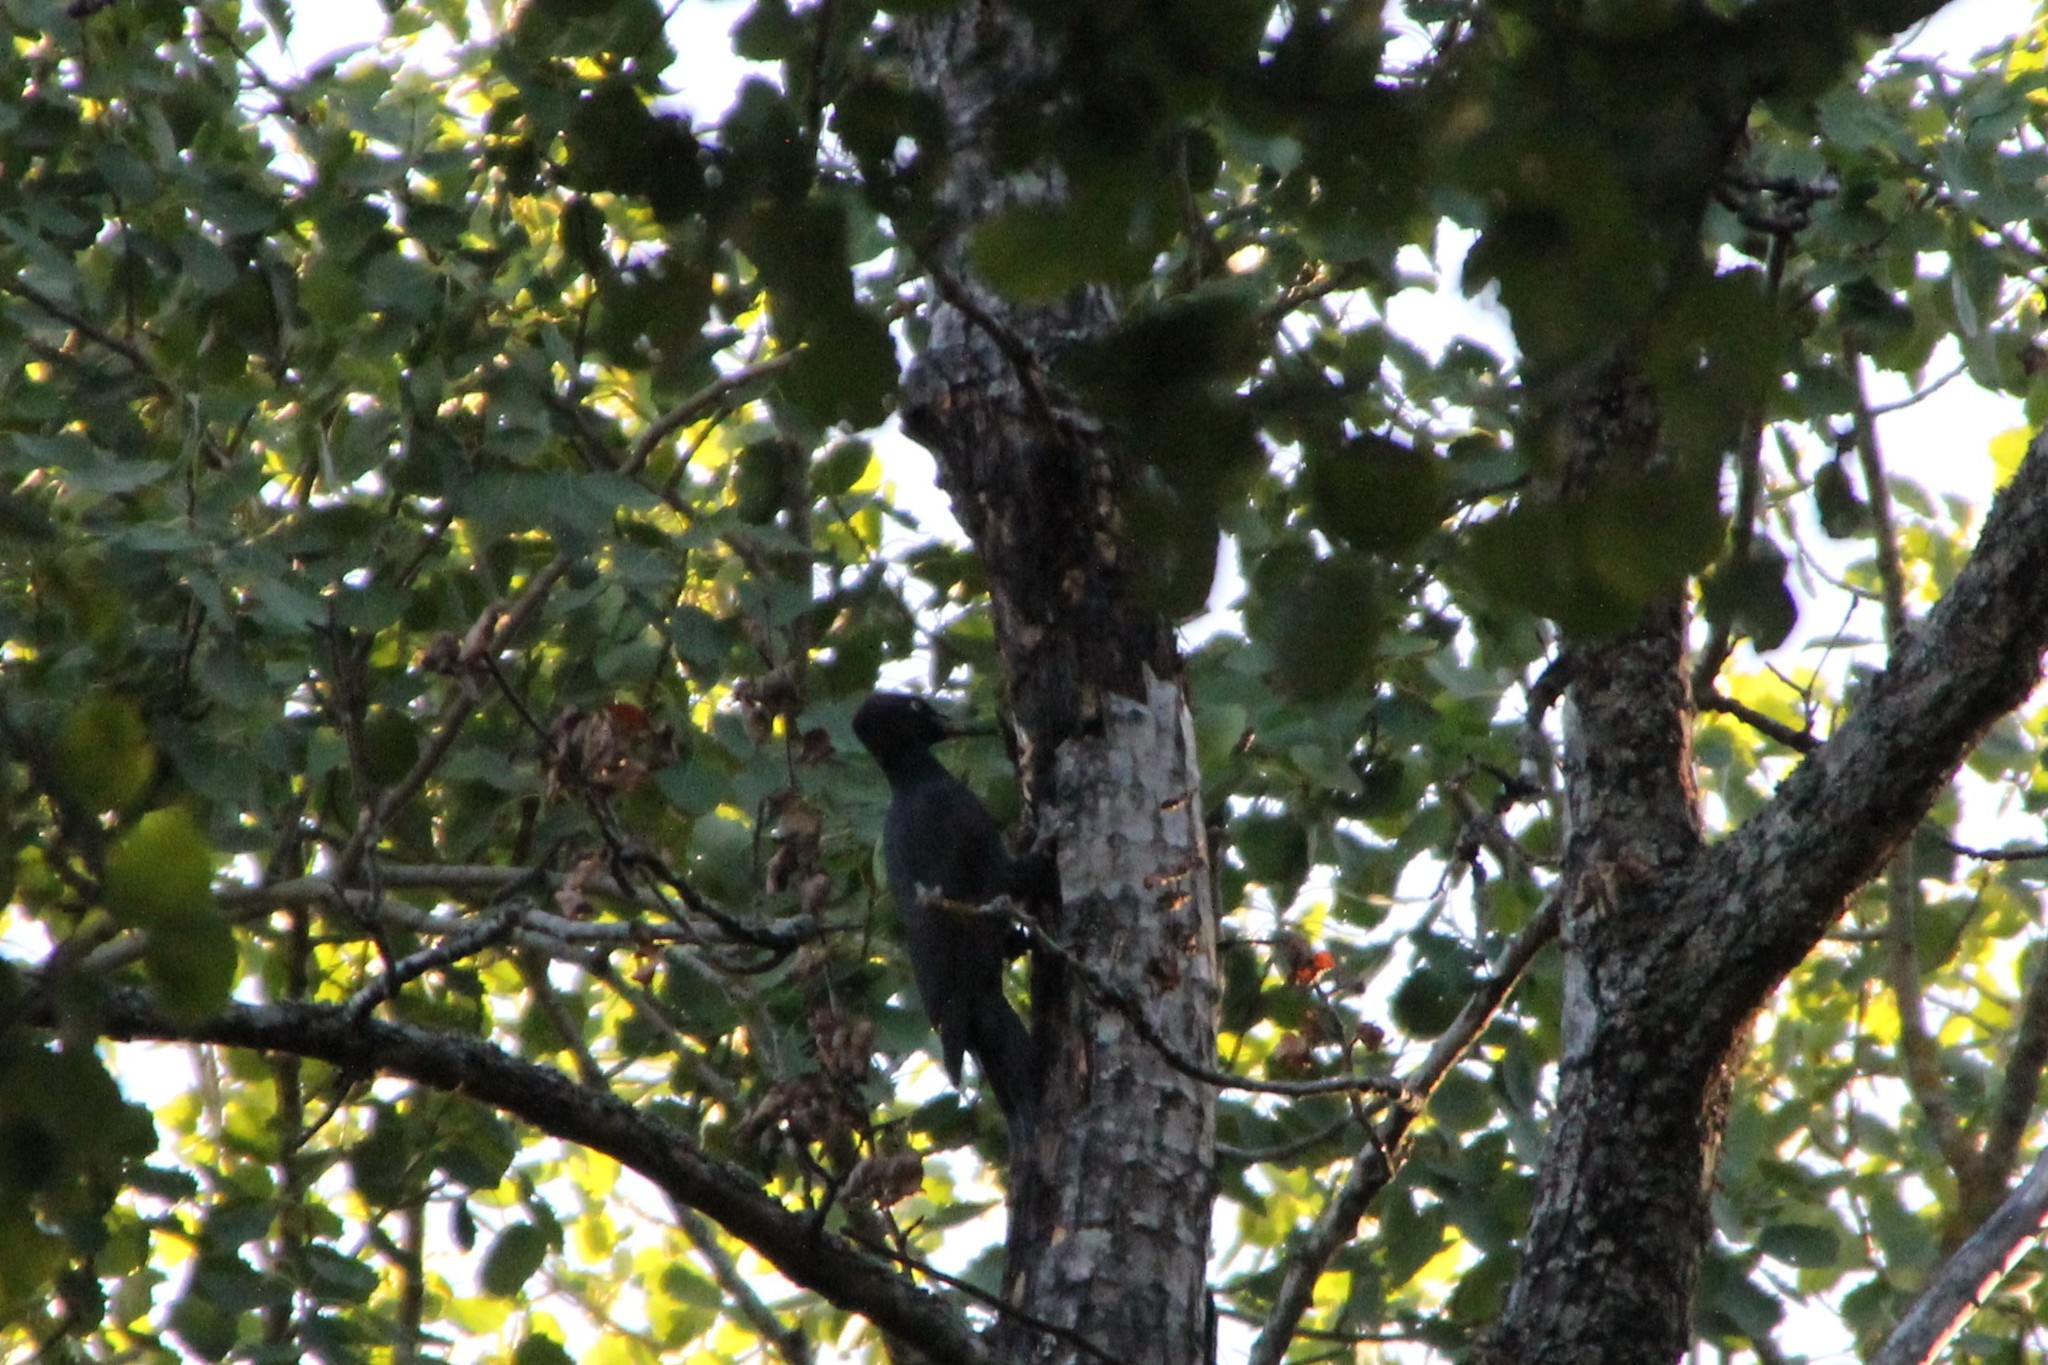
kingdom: Animalia
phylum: Chordata
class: Aves
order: Piciformes
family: Picidae
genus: Dryocopus
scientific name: Dryocopus martius
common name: Black woodpecker
